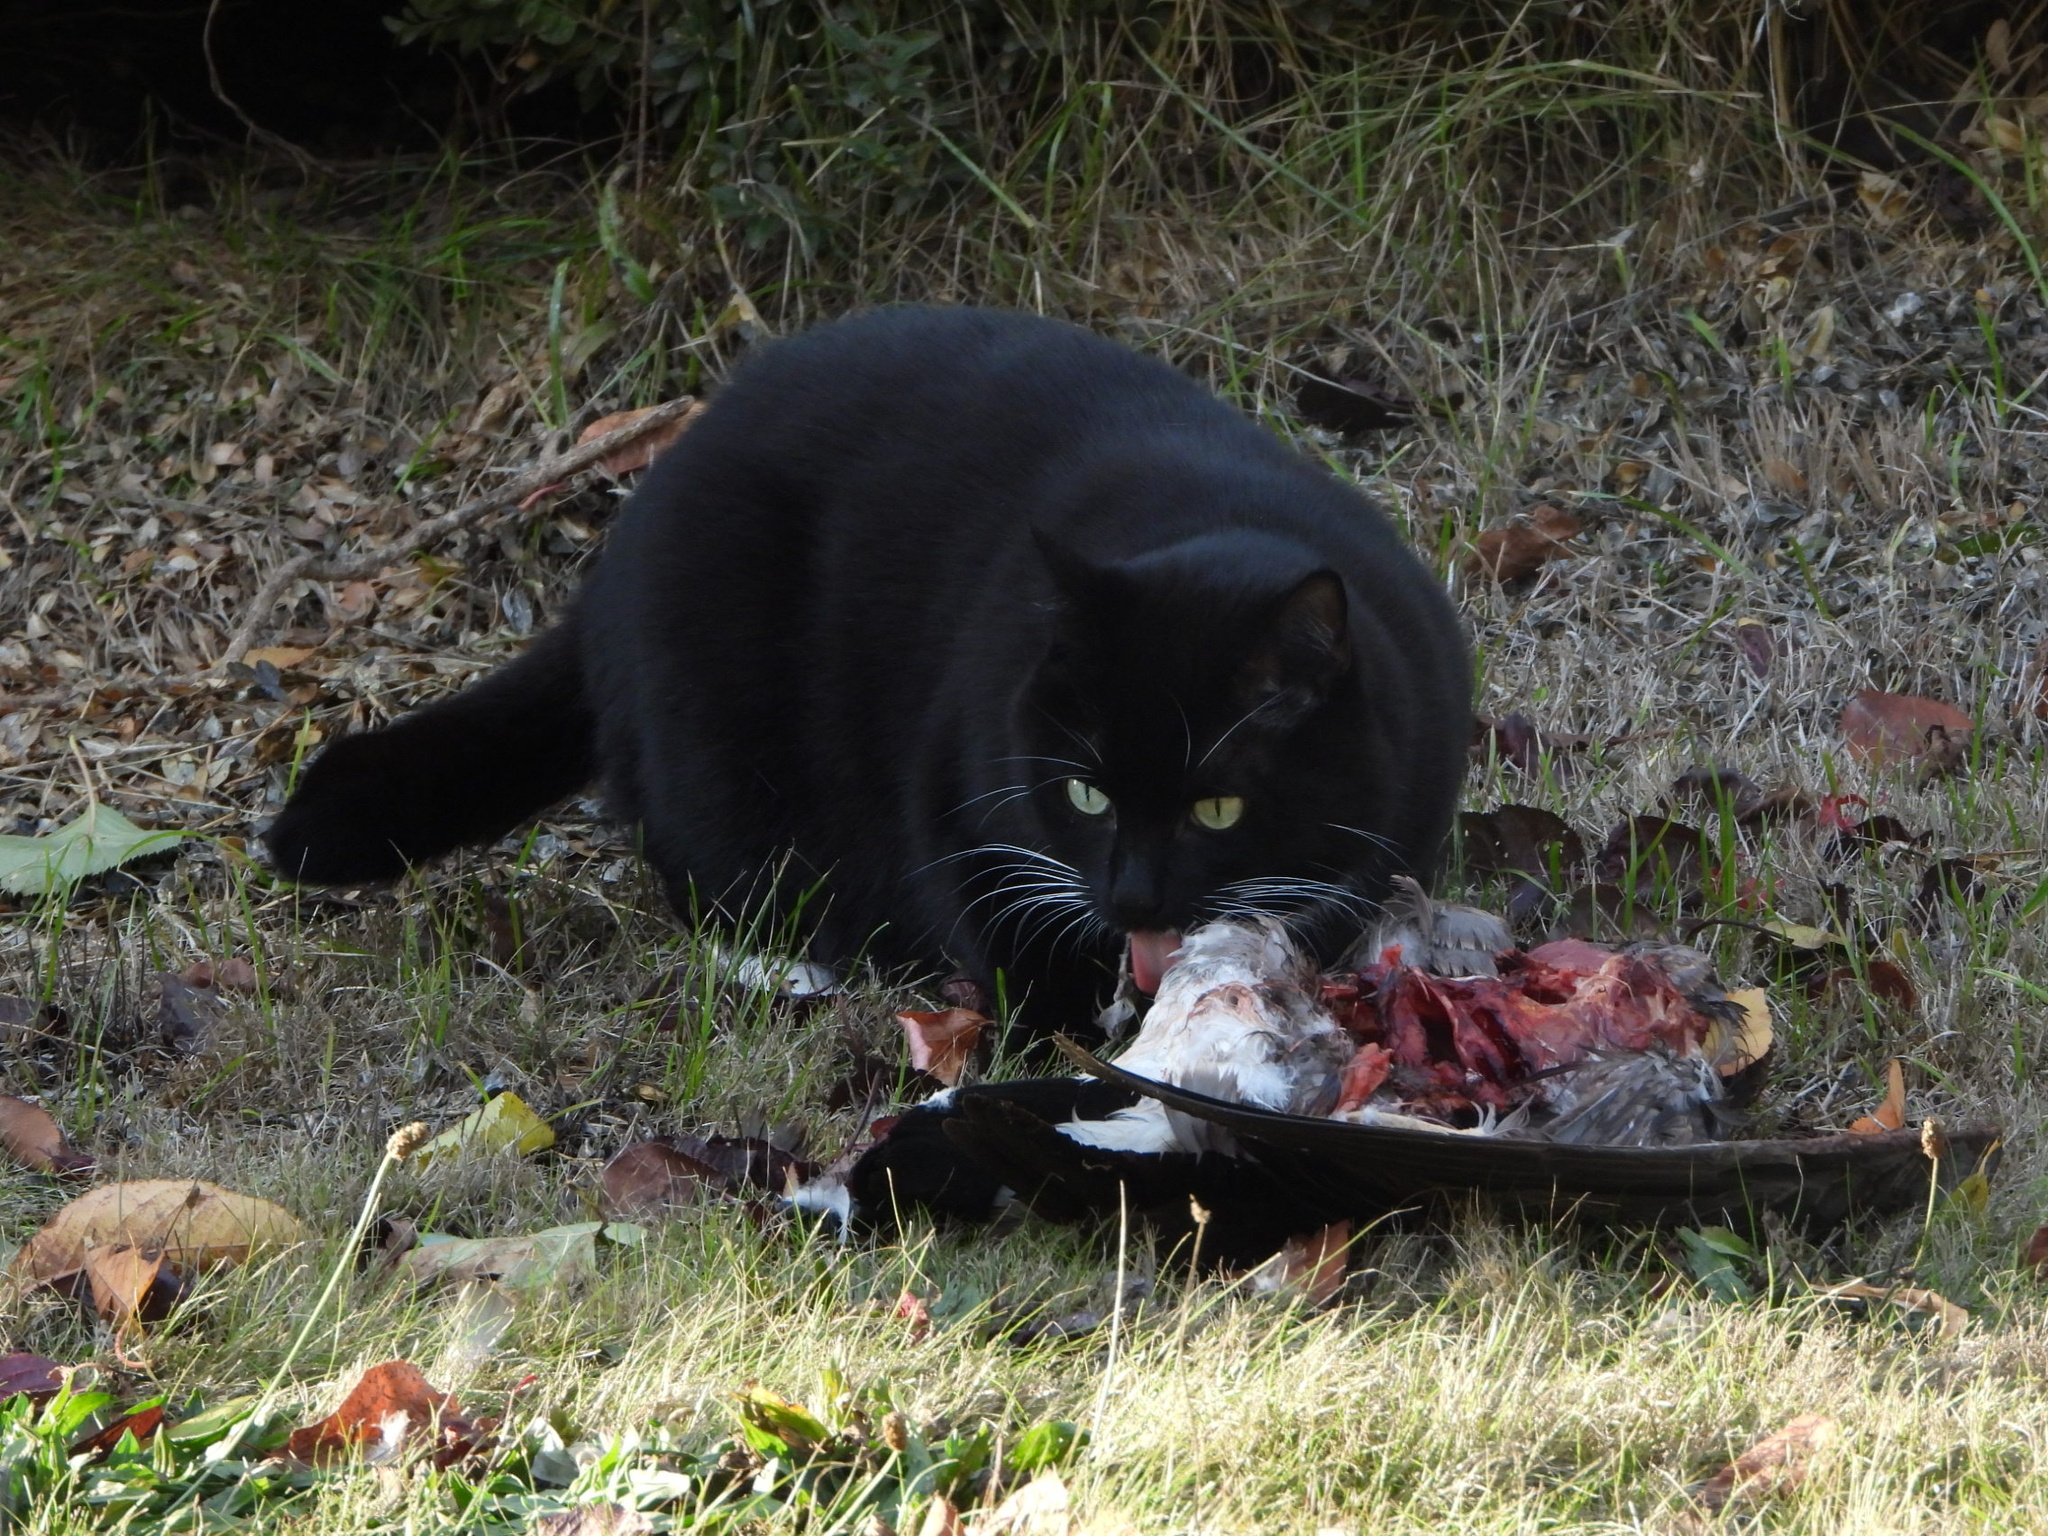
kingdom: Animalia
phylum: Chordata
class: Mammalia
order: Carnivora
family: Felidae
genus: Felis
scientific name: Felis catus
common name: Domestic cat
